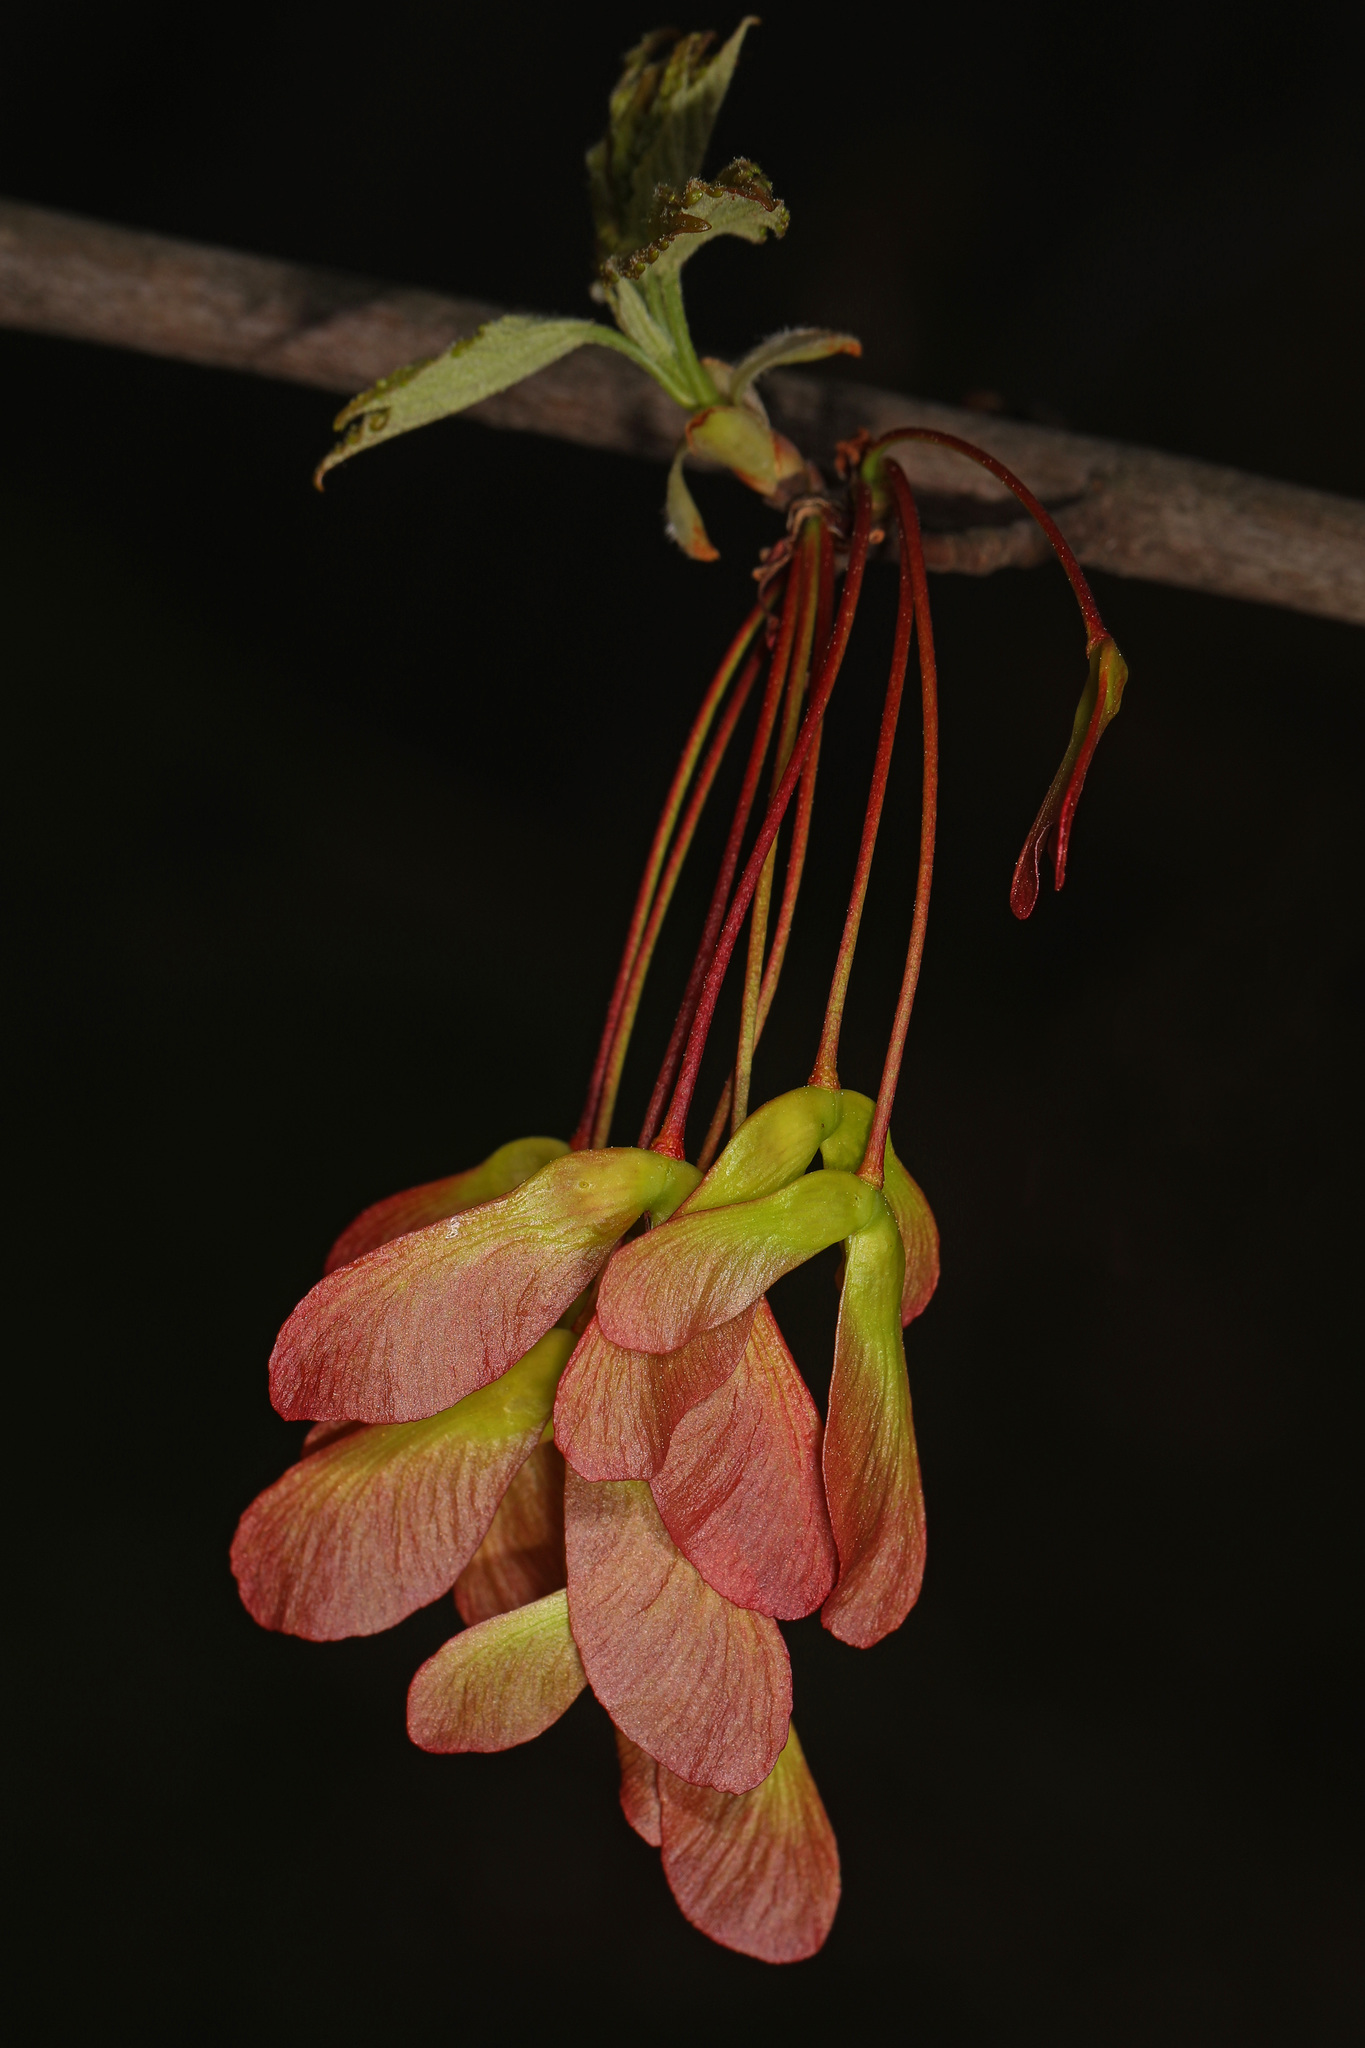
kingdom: Plantae
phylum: Tracheophyta
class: Magnoliopsida
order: Sapindales
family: Sapindaceae
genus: Acer
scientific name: Acer rubrum
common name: Red maple
